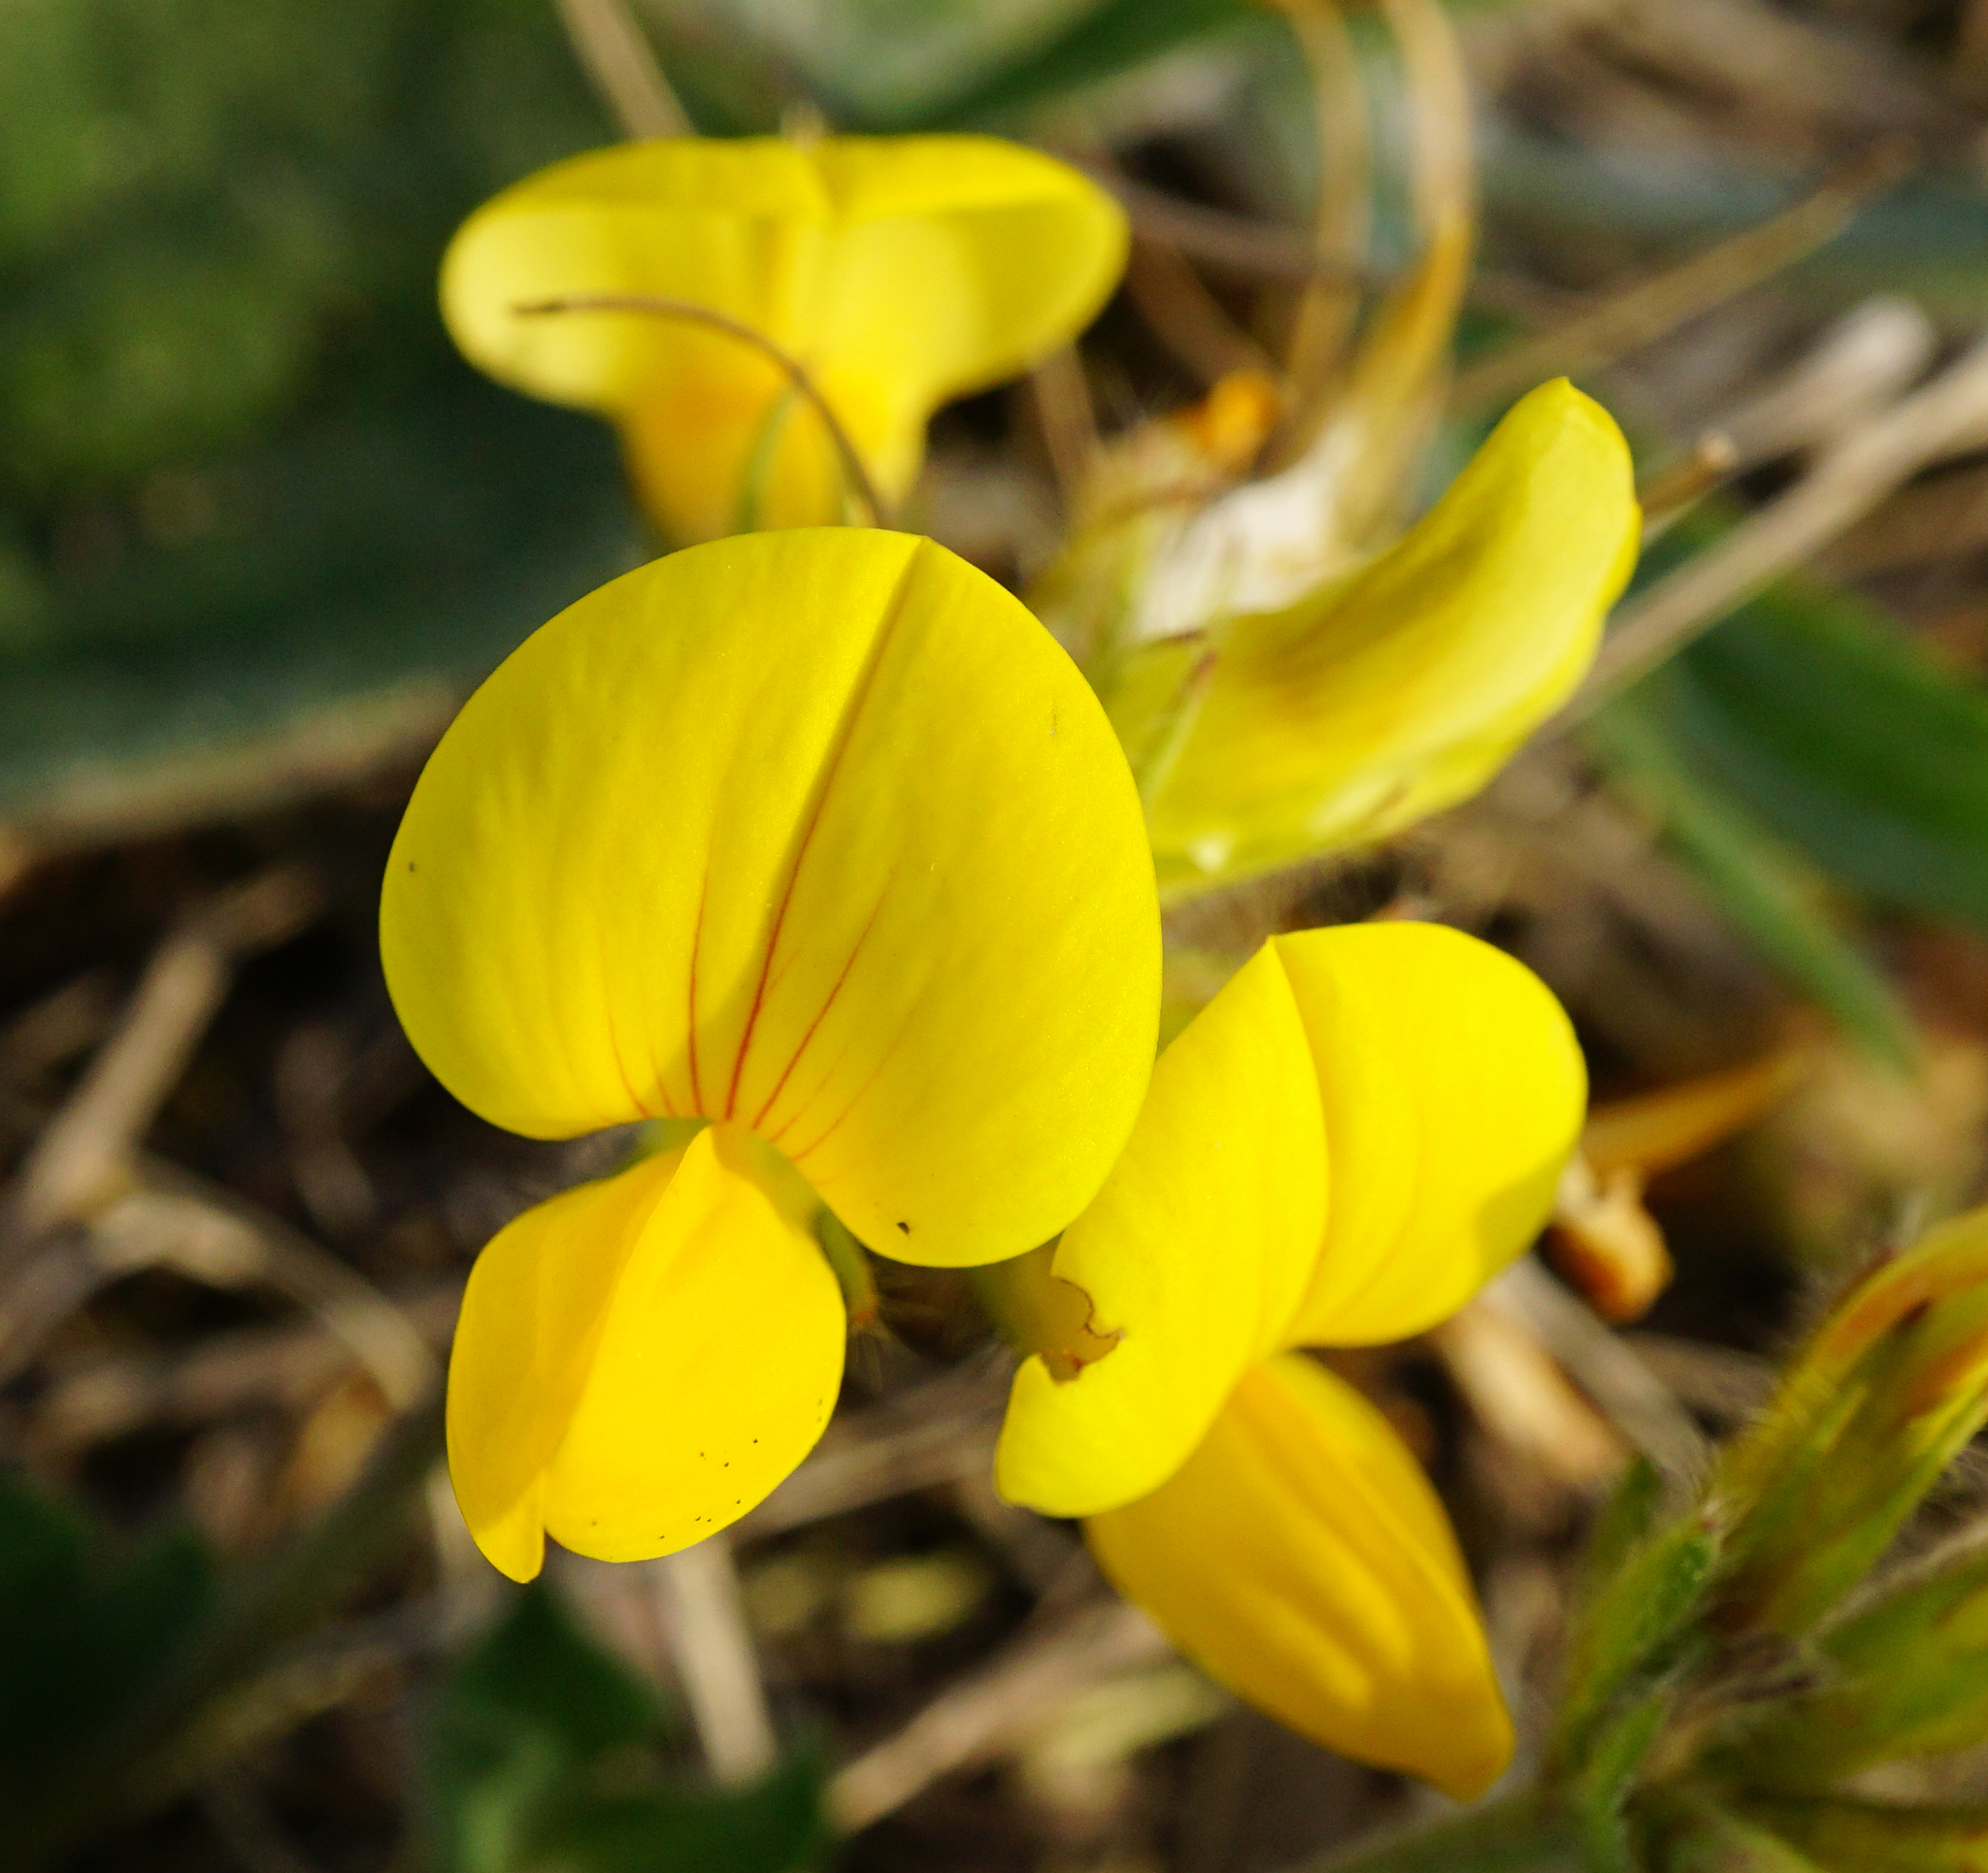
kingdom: Plantae
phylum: Tracheophyta
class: Magnoliopsida
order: Fabales
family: Fabaceae
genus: Lotus
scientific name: Lotus corniculatus
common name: Common bird's-foot-trefoil
